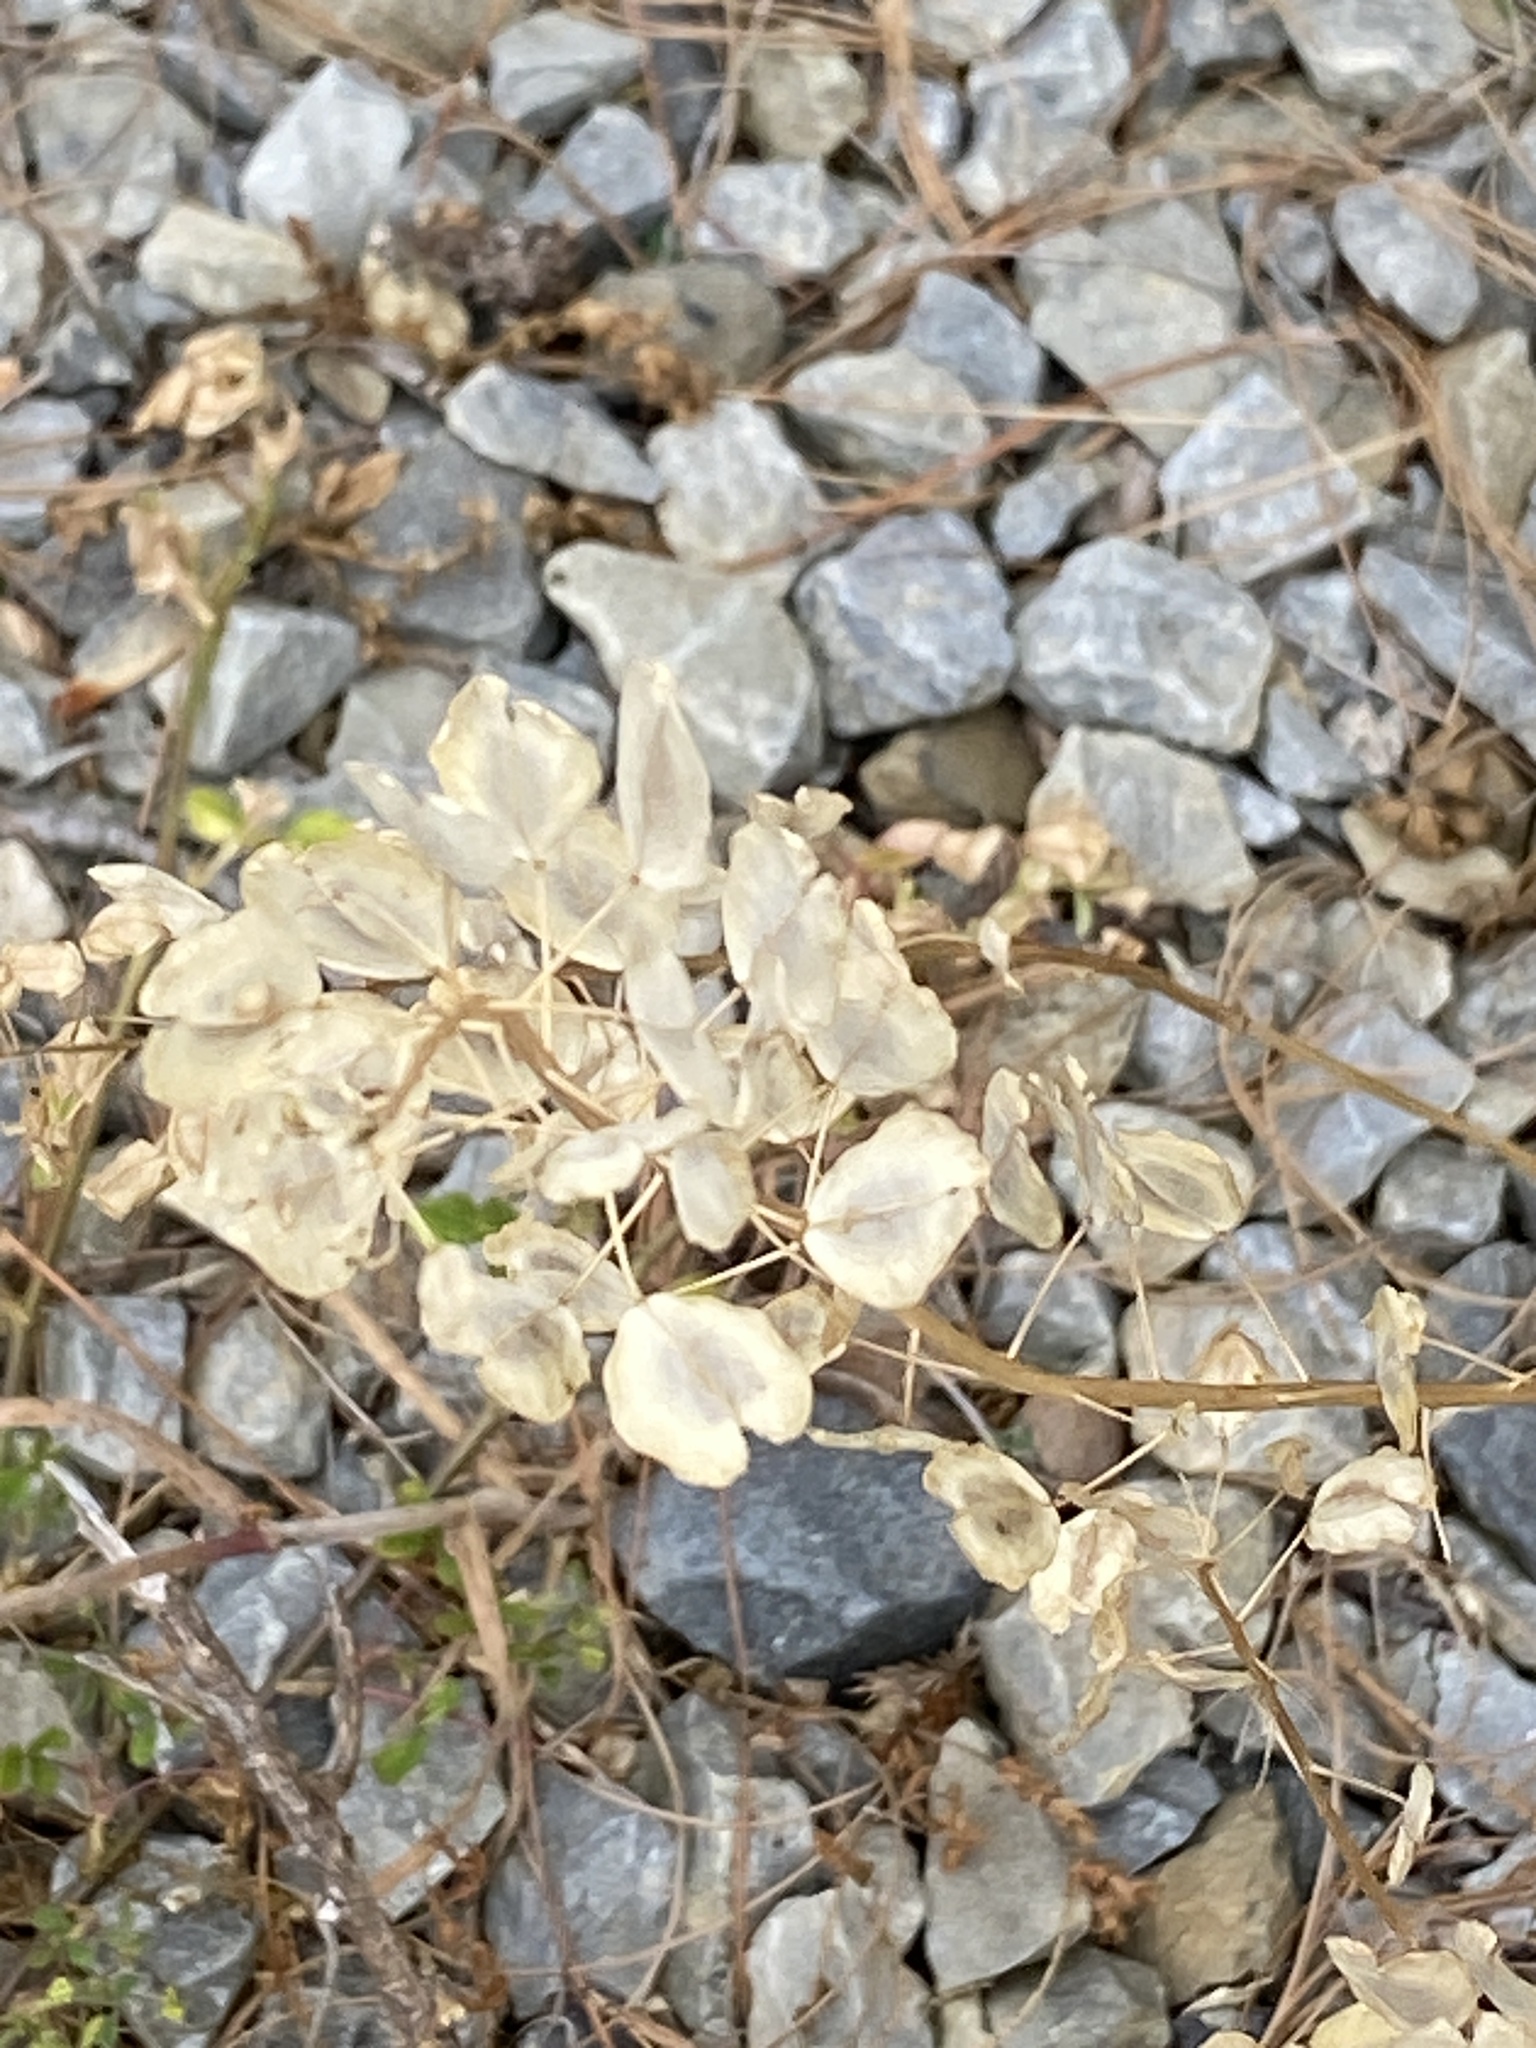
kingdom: Plantae
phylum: Tracheophyta
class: Magnoliopsida
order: Brassicales
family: Brassicaceae
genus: Thlaspi
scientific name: Thlaspi arvense
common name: Field pennycress
